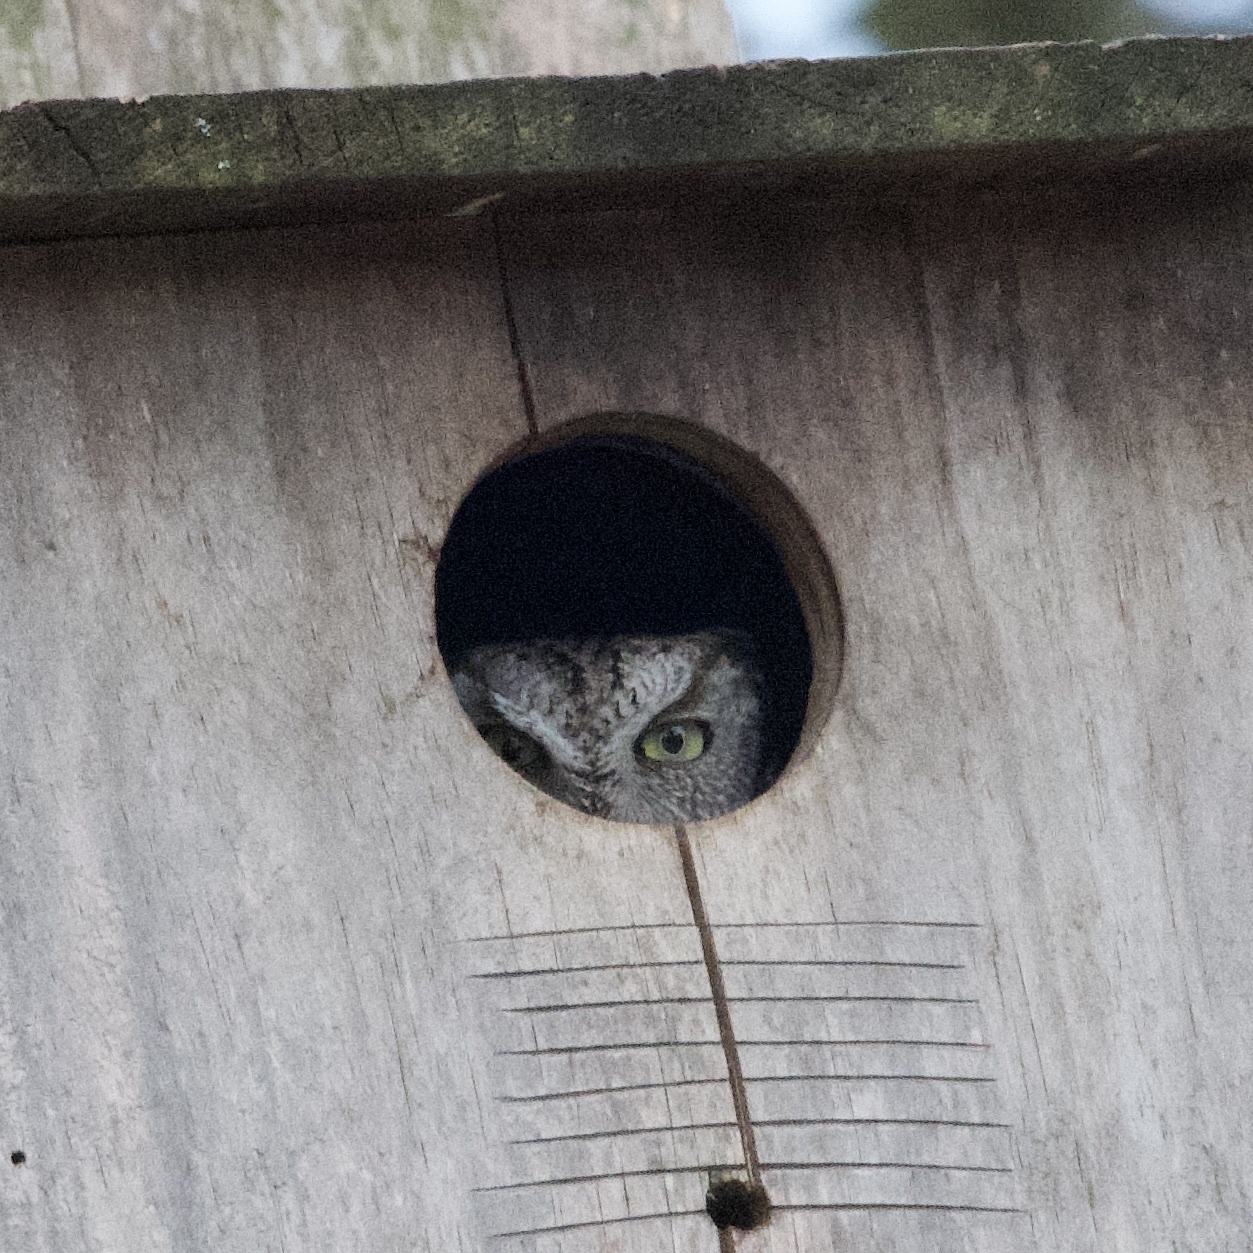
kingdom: Animalia
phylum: Chordata
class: Aves
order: Strigiformes
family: Strigidae
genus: Megascops
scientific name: Megascops asio
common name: Eastern screech-owl
